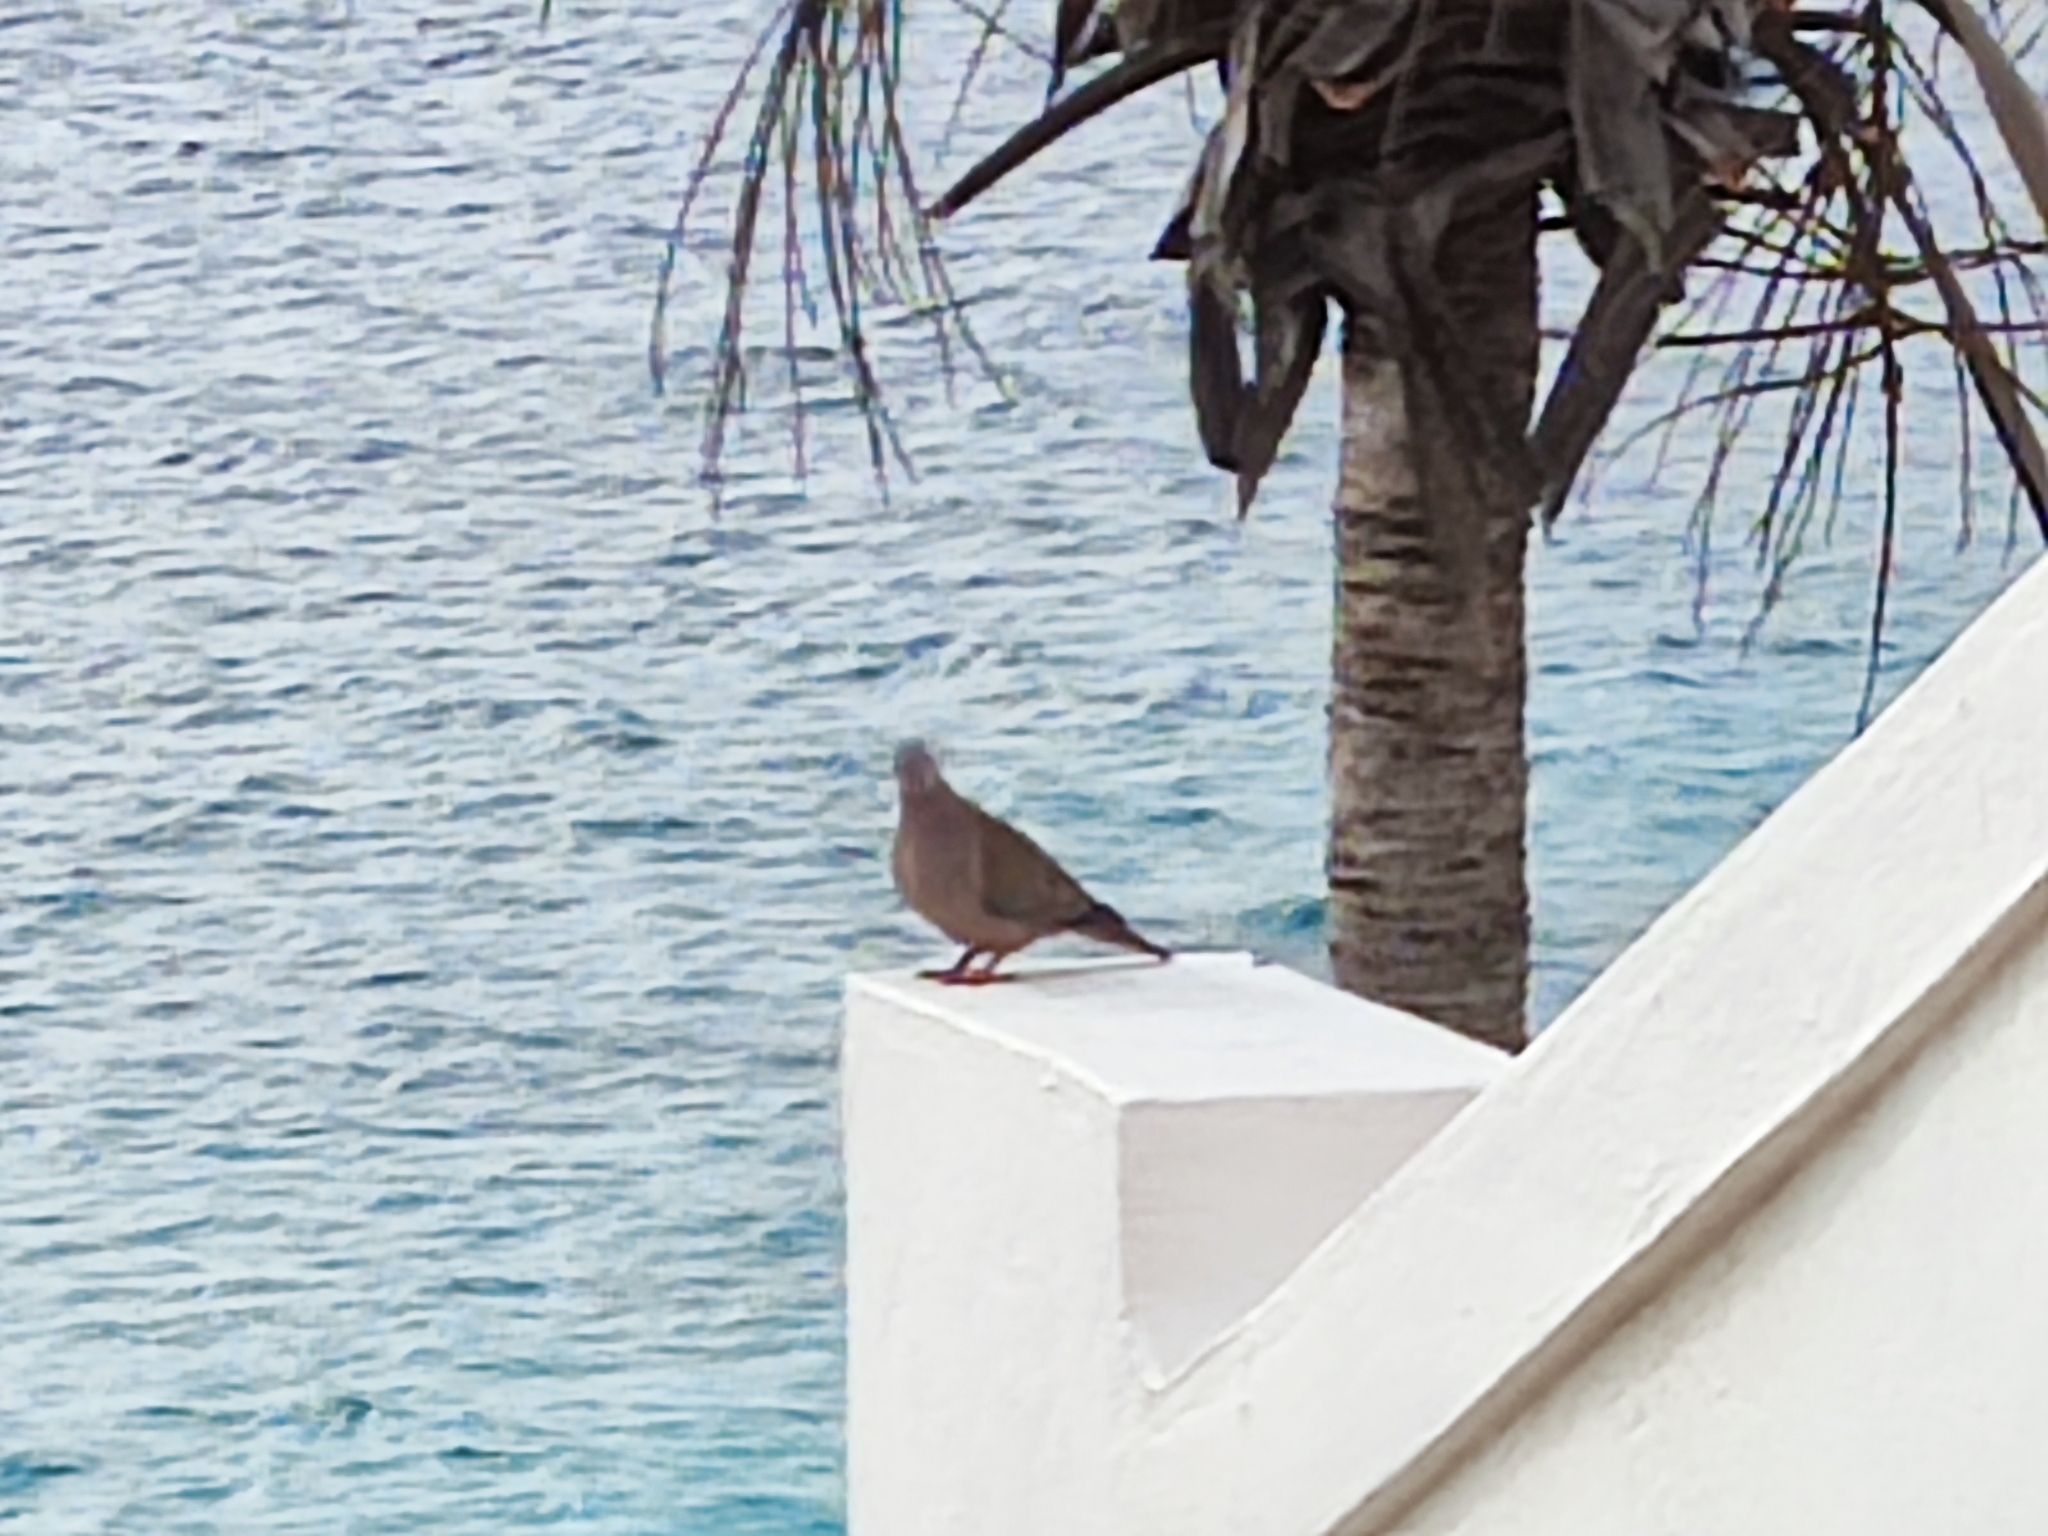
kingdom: Animalia
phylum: Chordata
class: Aves
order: Columbiformes
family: Columbidae
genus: Zenaida
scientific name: Zenaida auriculata
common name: Eared dove
